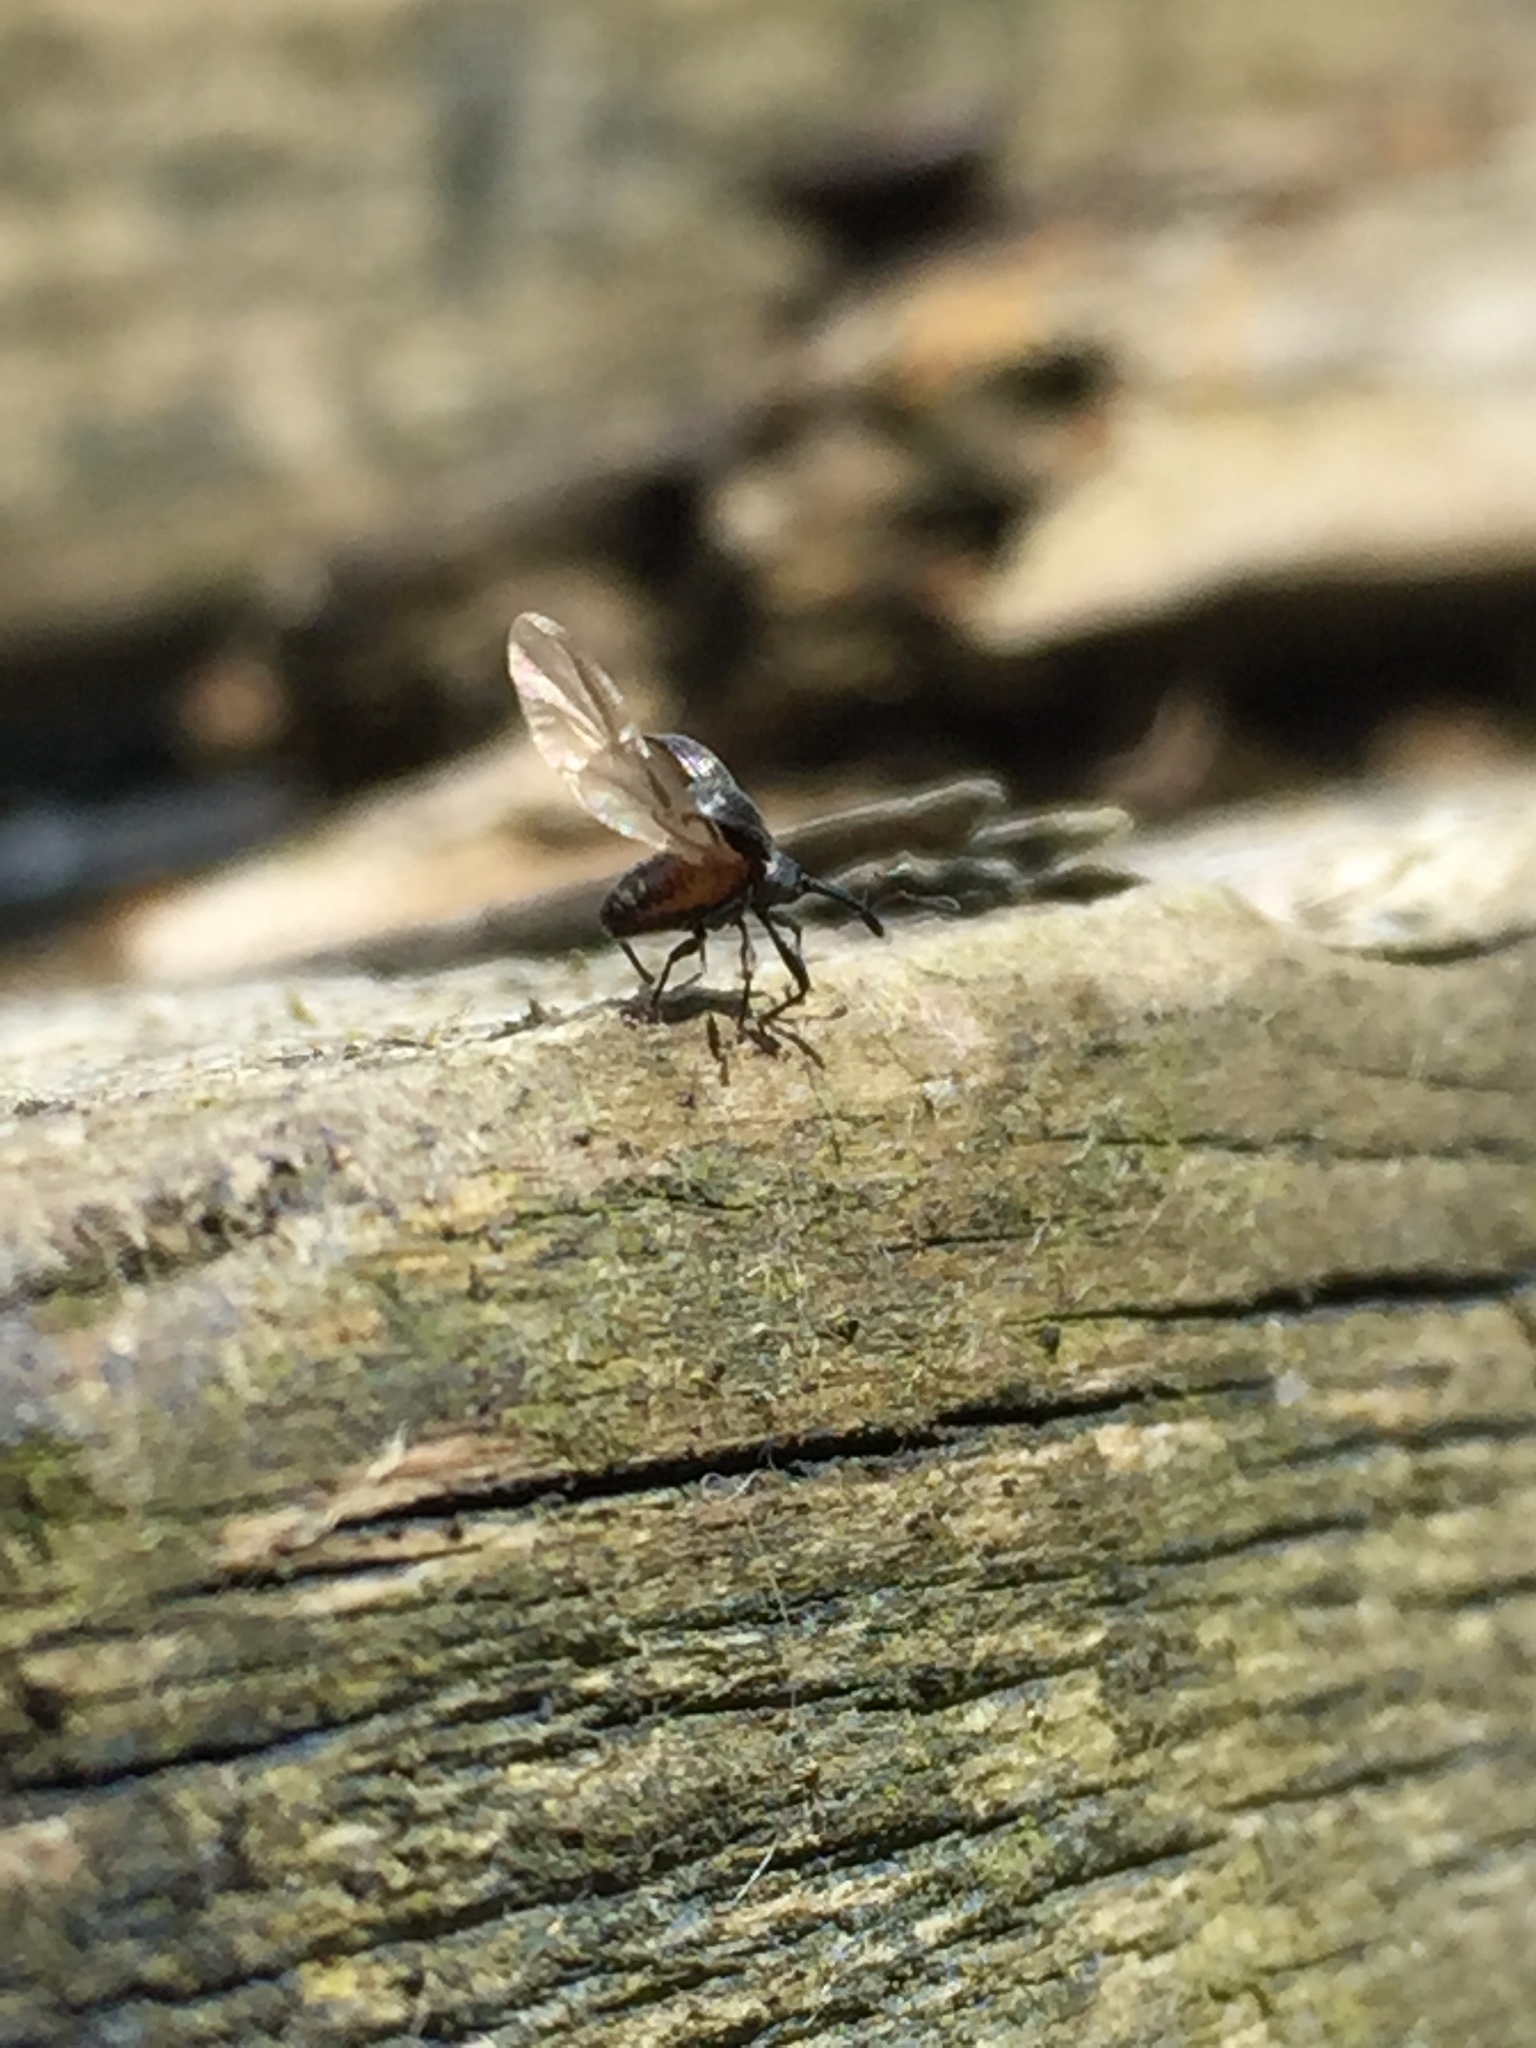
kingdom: Animalia
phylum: Arthropoda
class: Insecta
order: Coleoptera
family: Curculionidae
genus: Anthonomus
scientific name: Anthonomus rubi
